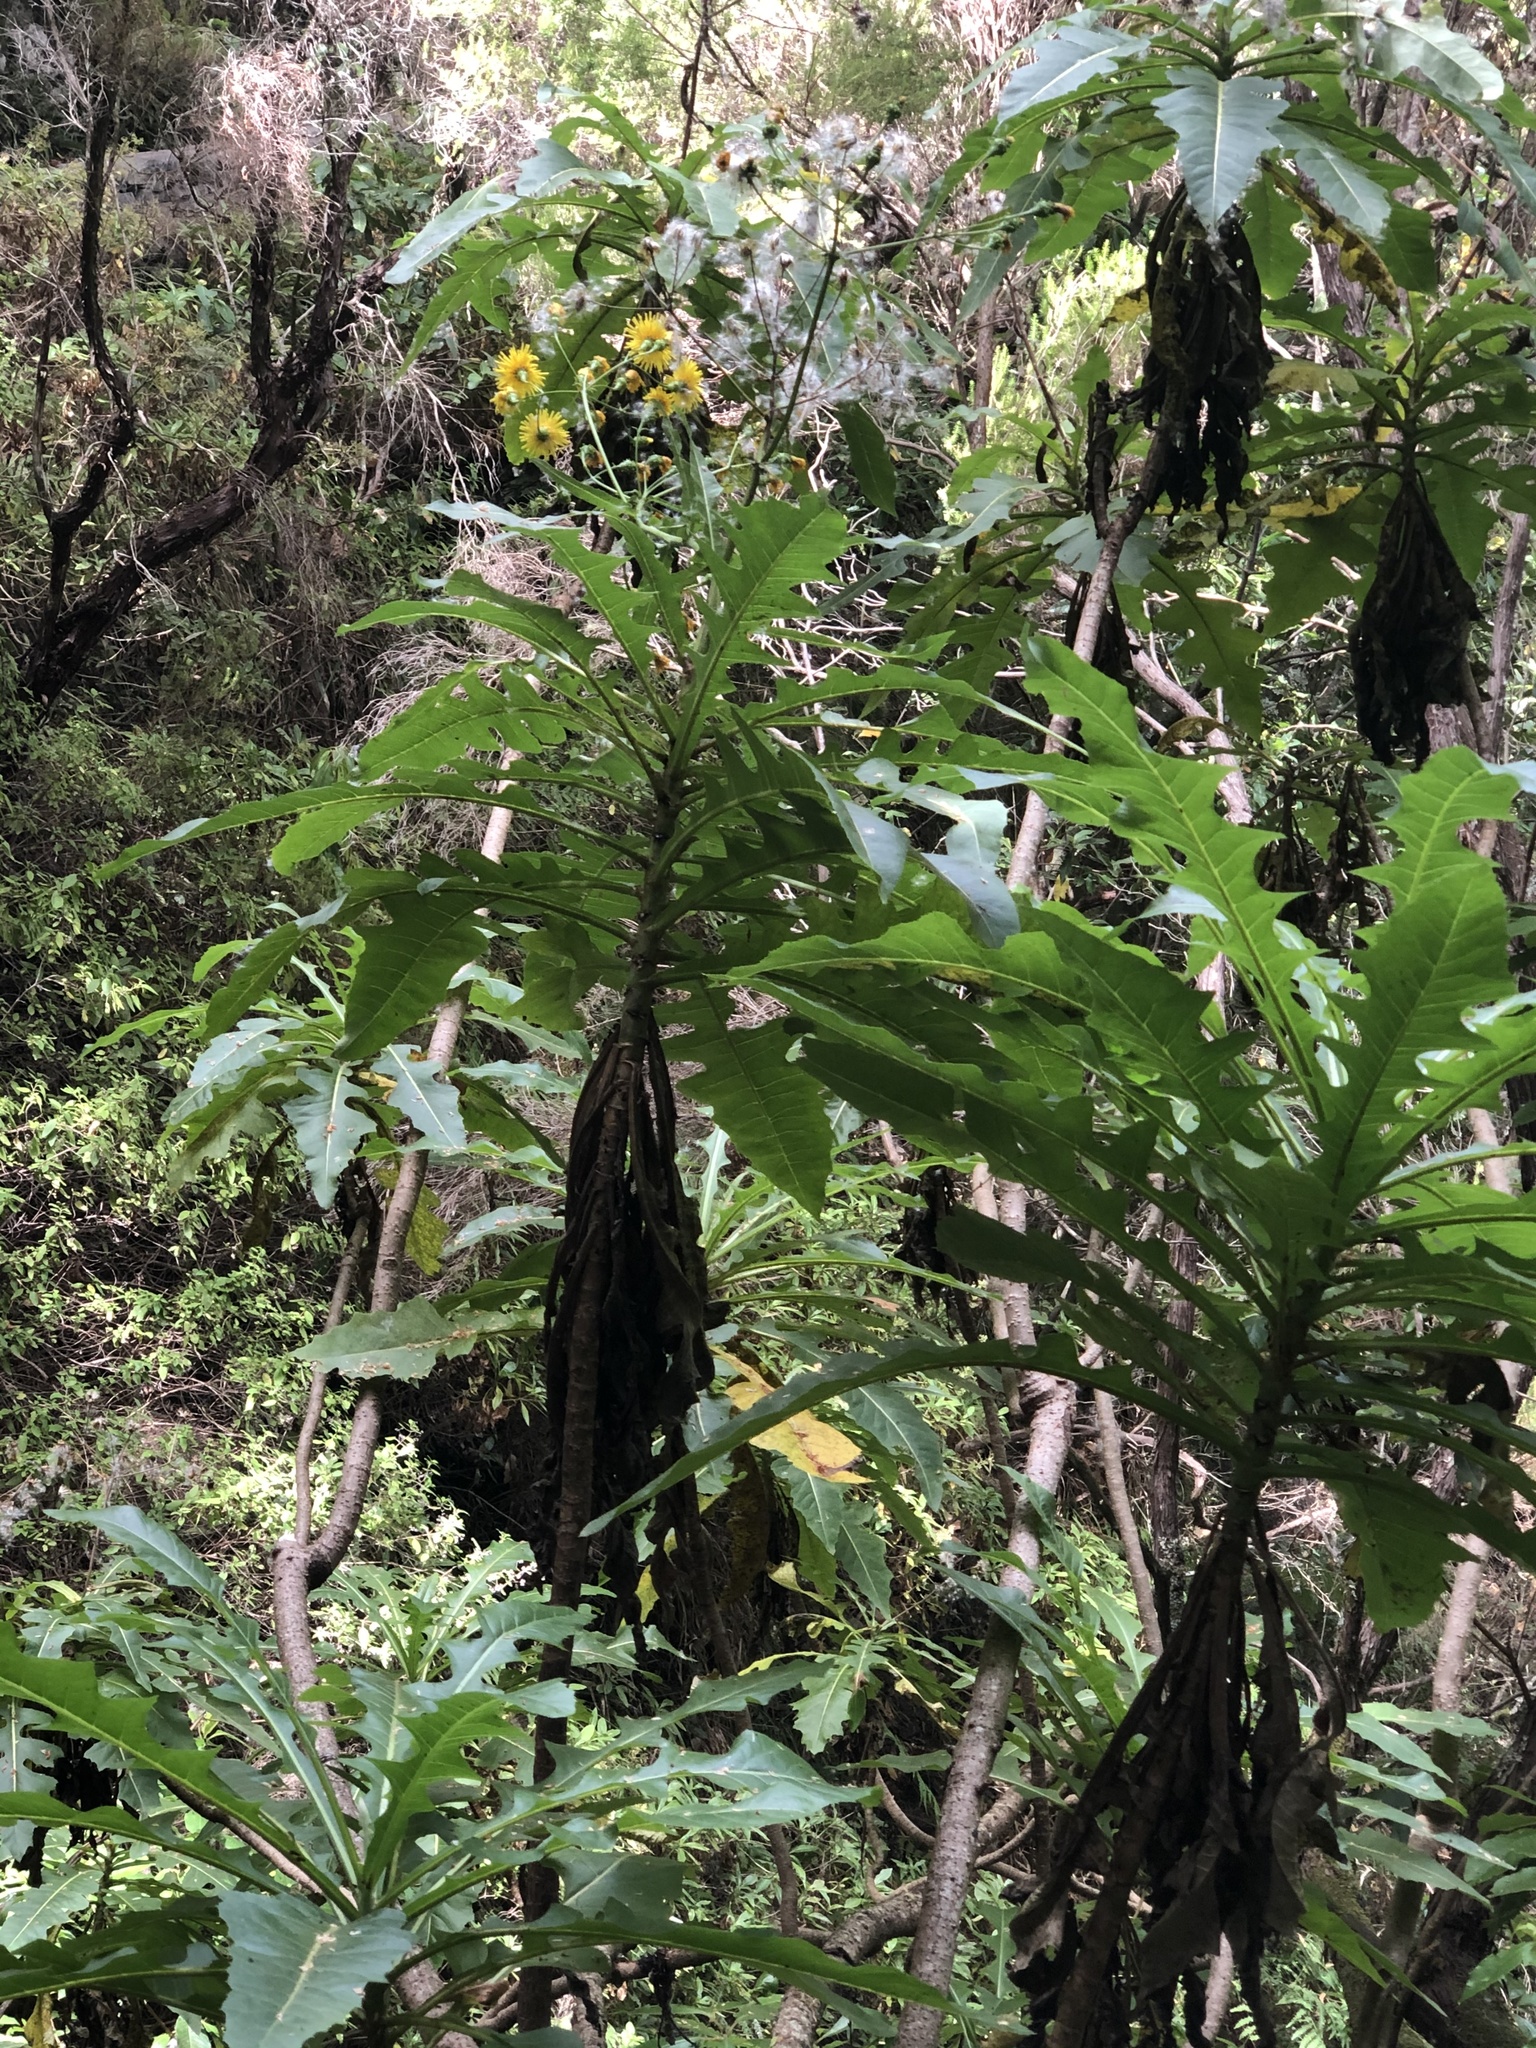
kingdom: Plantae
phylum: Tracheophyta
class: Magnoliopsida
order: Asterales
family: Asteraceae
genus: Sonchus
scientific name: Sonchus fruticosus
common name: Shrubby sow-thistle
